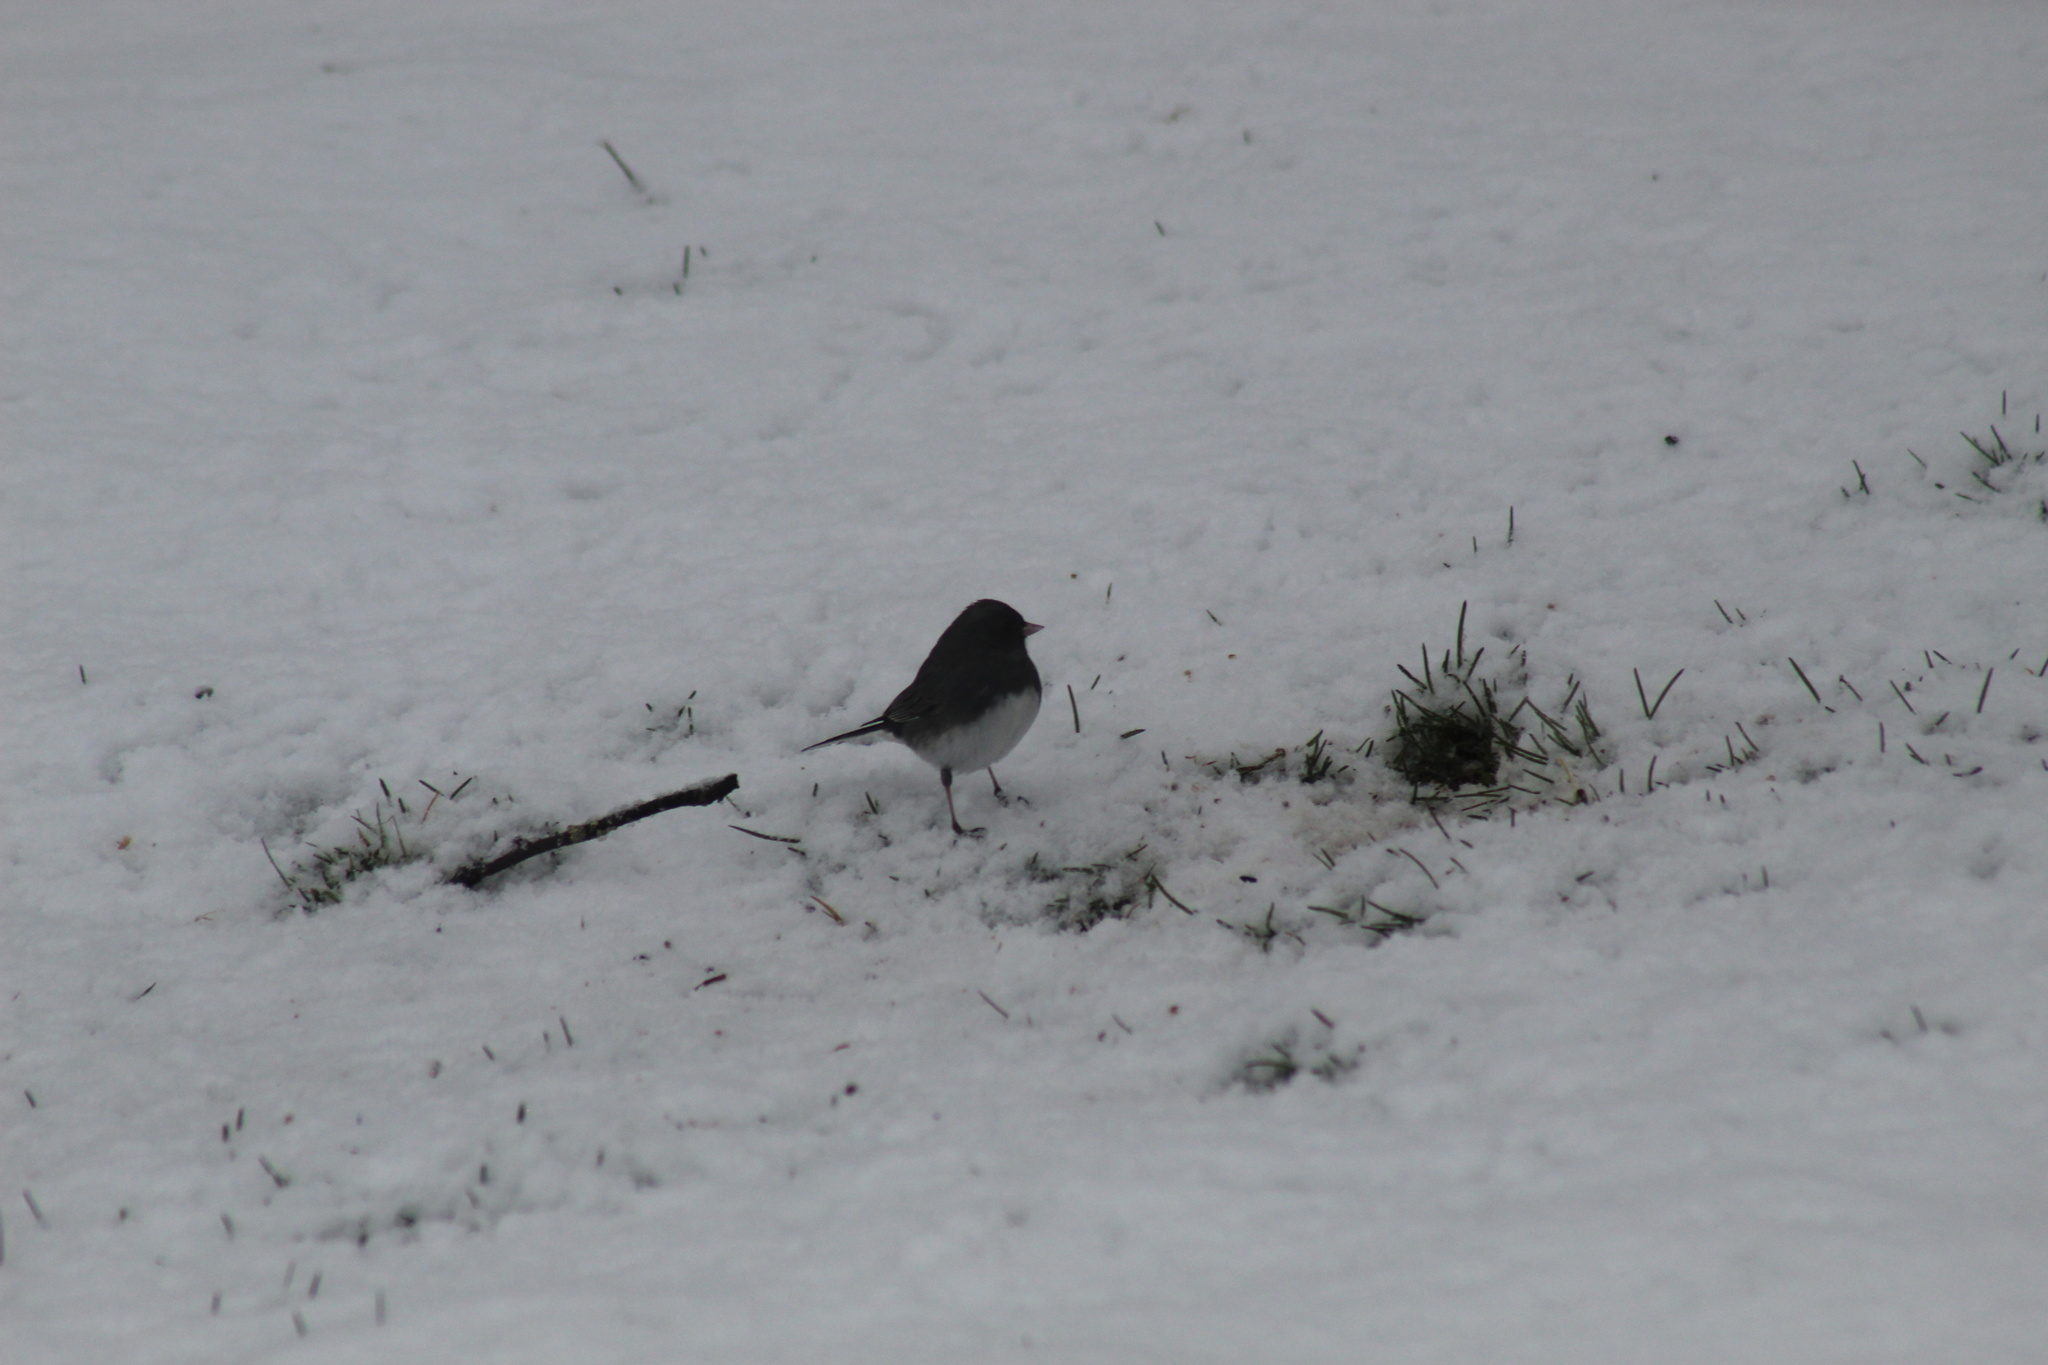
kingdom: Animalia
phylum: Chordata
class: Aves
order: Passeriformes
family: Passerellidae
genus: Junco
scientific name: Junco hyemalis
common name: Dark-eyed junco
